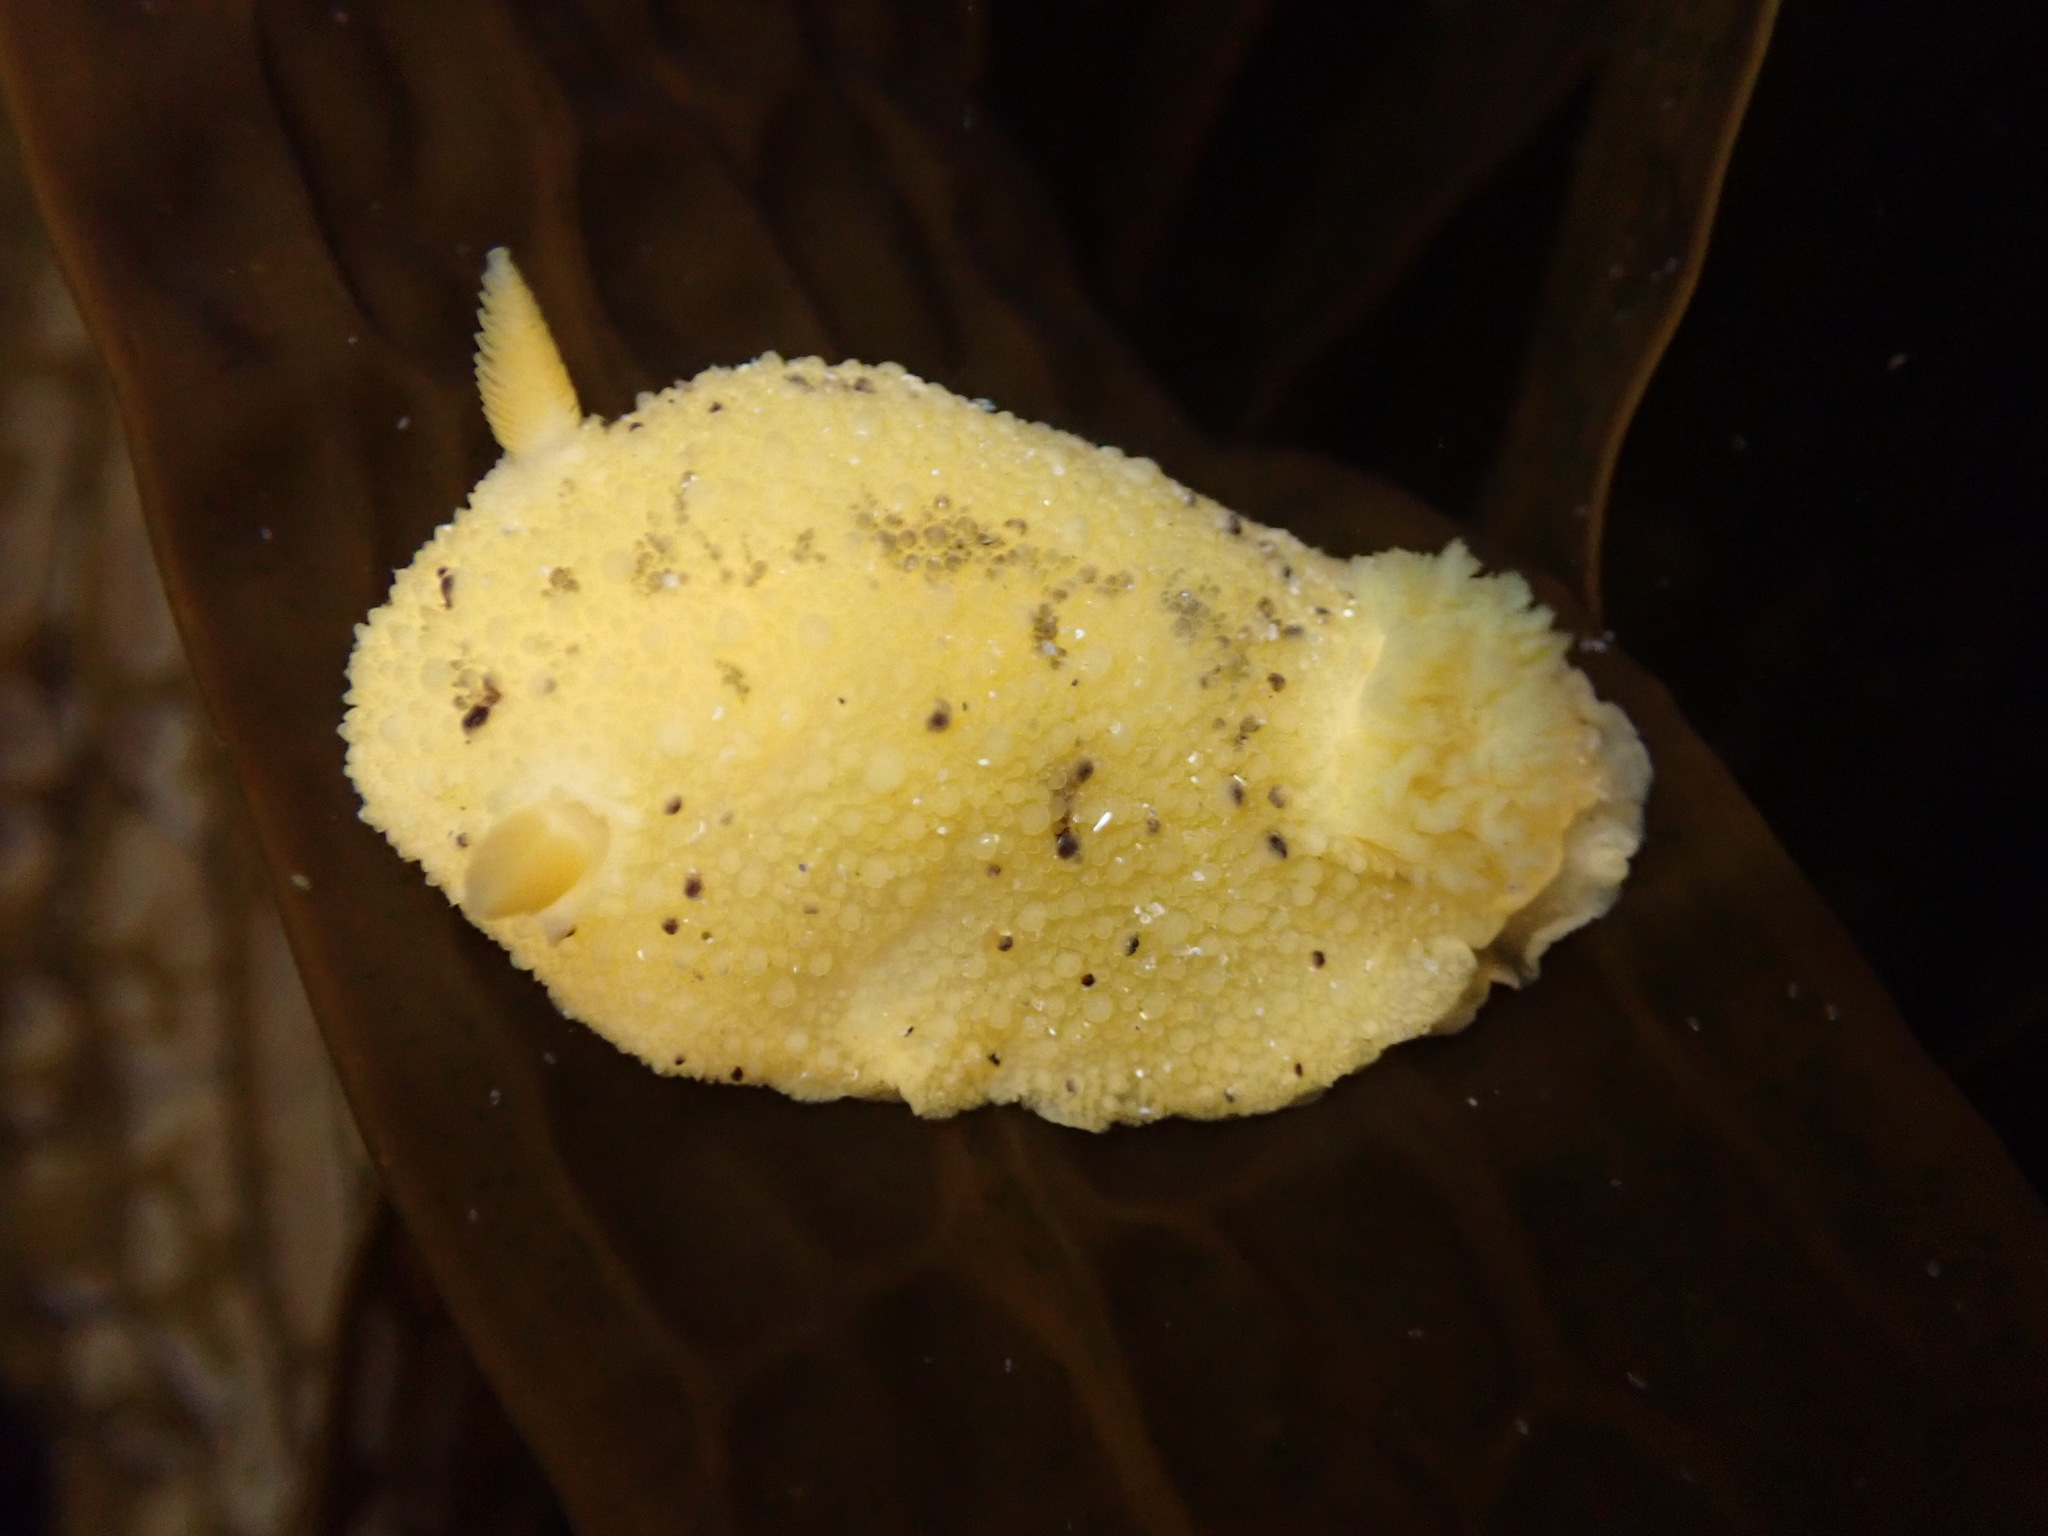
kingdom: Animalia
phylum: Mollusca
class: Gastropoda
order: Nudibranchia
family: Dorididae
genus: Doris
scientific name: Doris montereyensis
